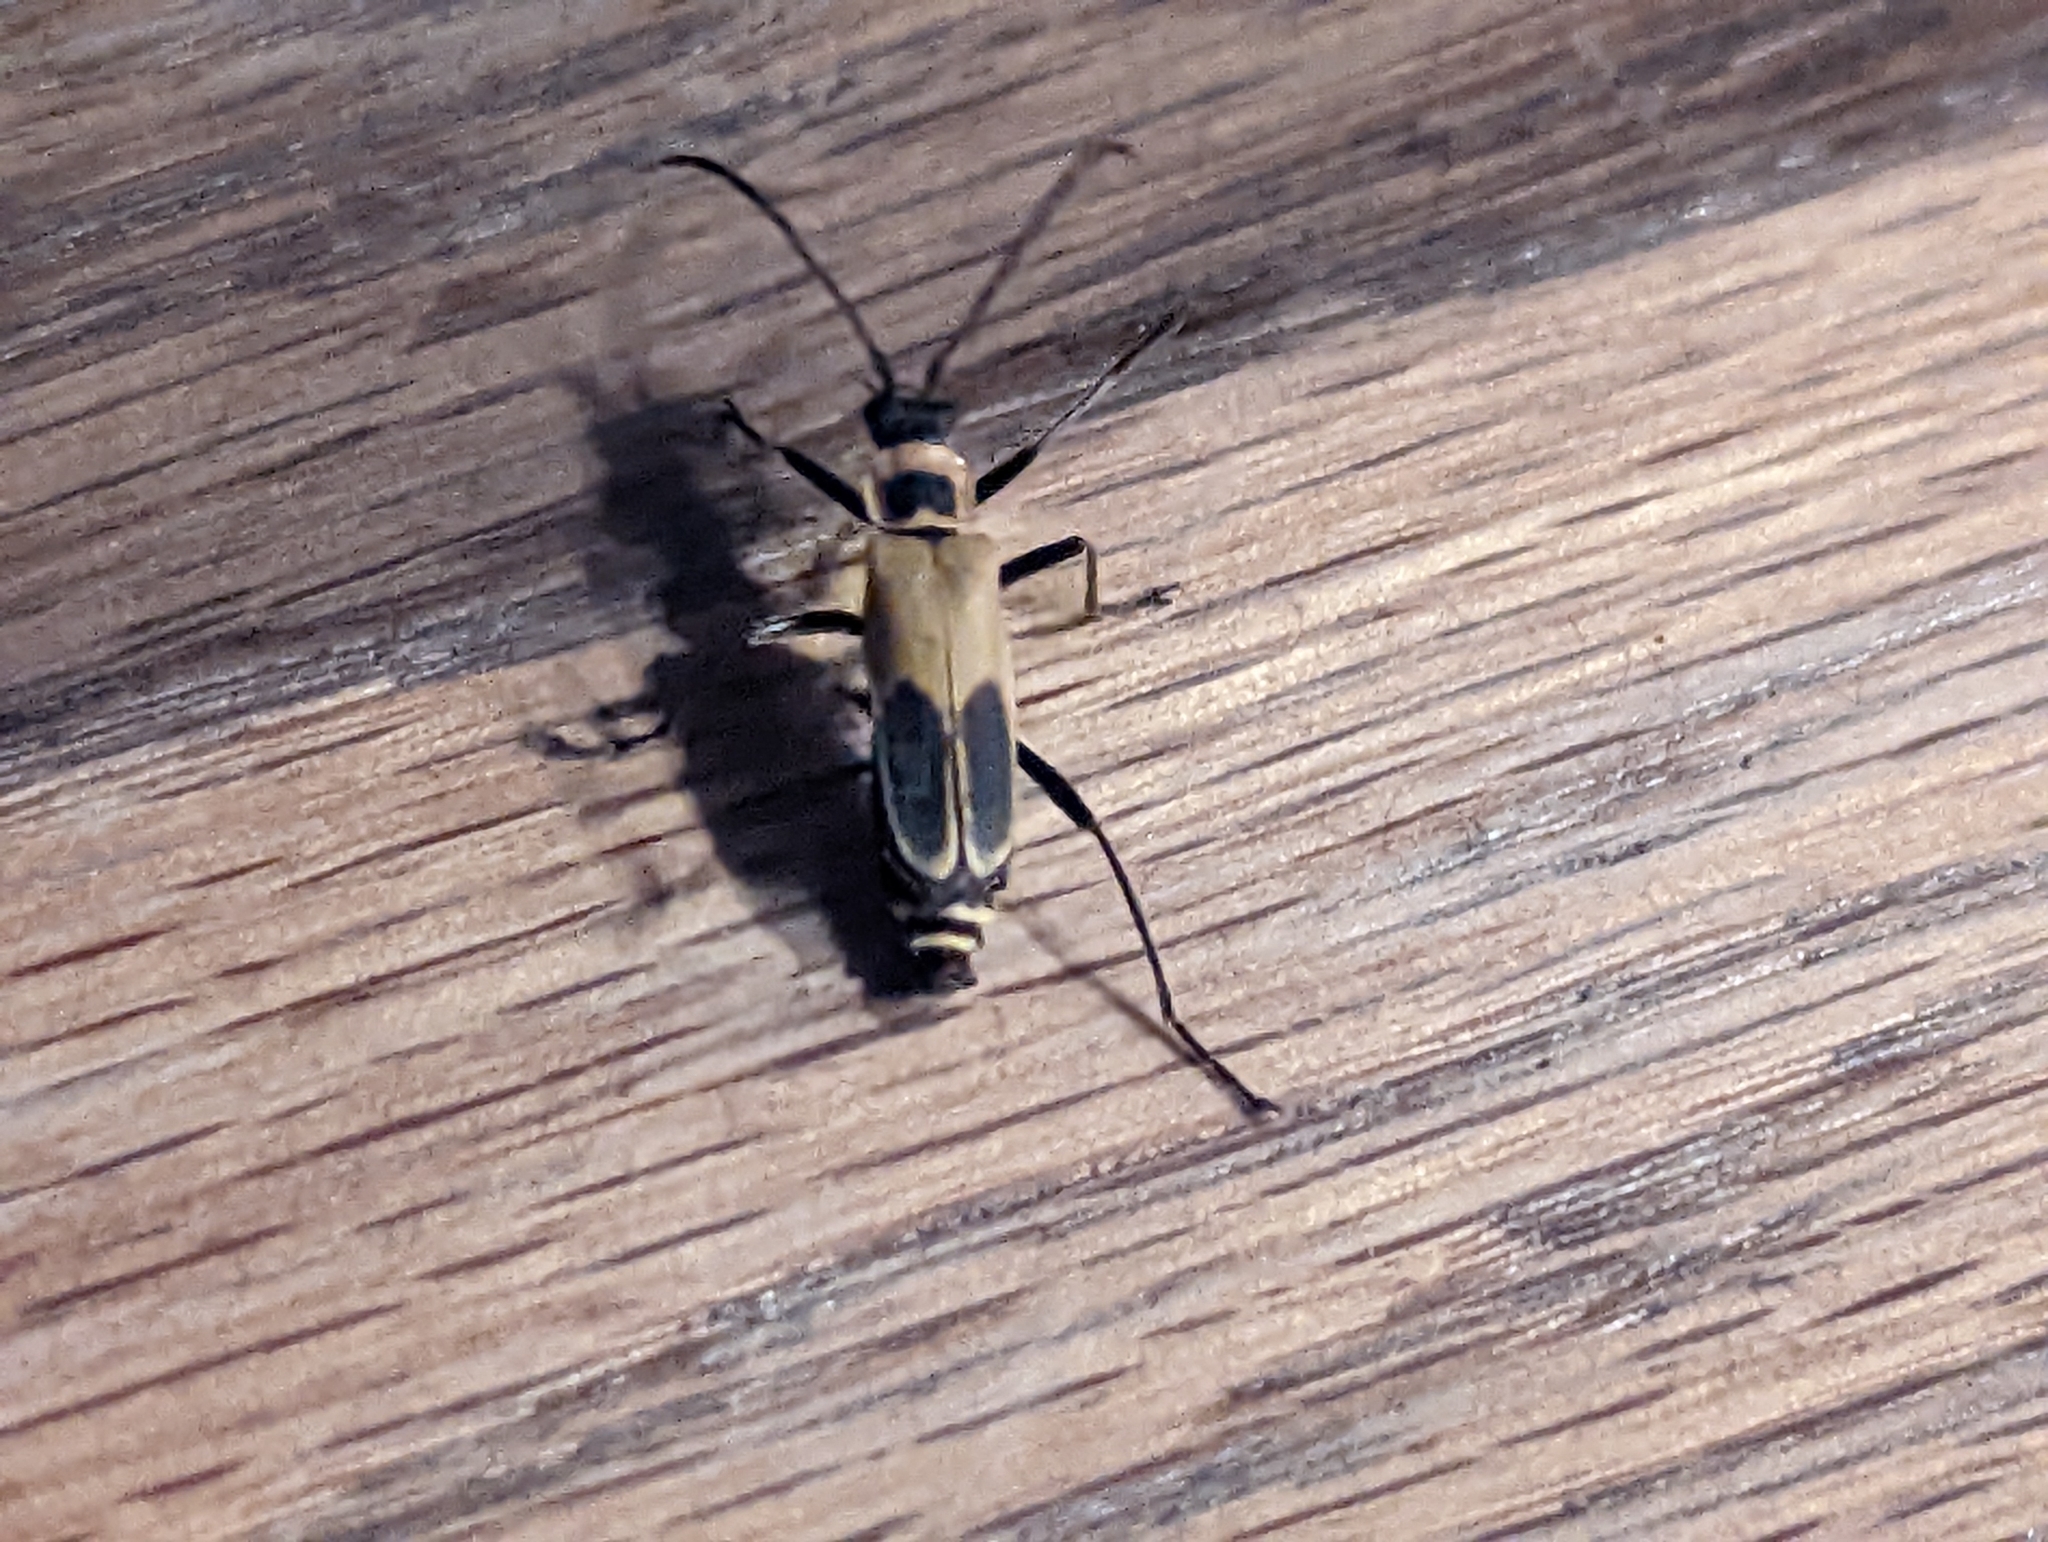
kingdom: Animalia
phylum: Arthropoda
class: Insecta
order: Coleoptera
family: Cantharidae
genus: Chauliognathus
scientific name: Chauliognathus pensylvanicus
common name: Goldenrod soldier beetle
